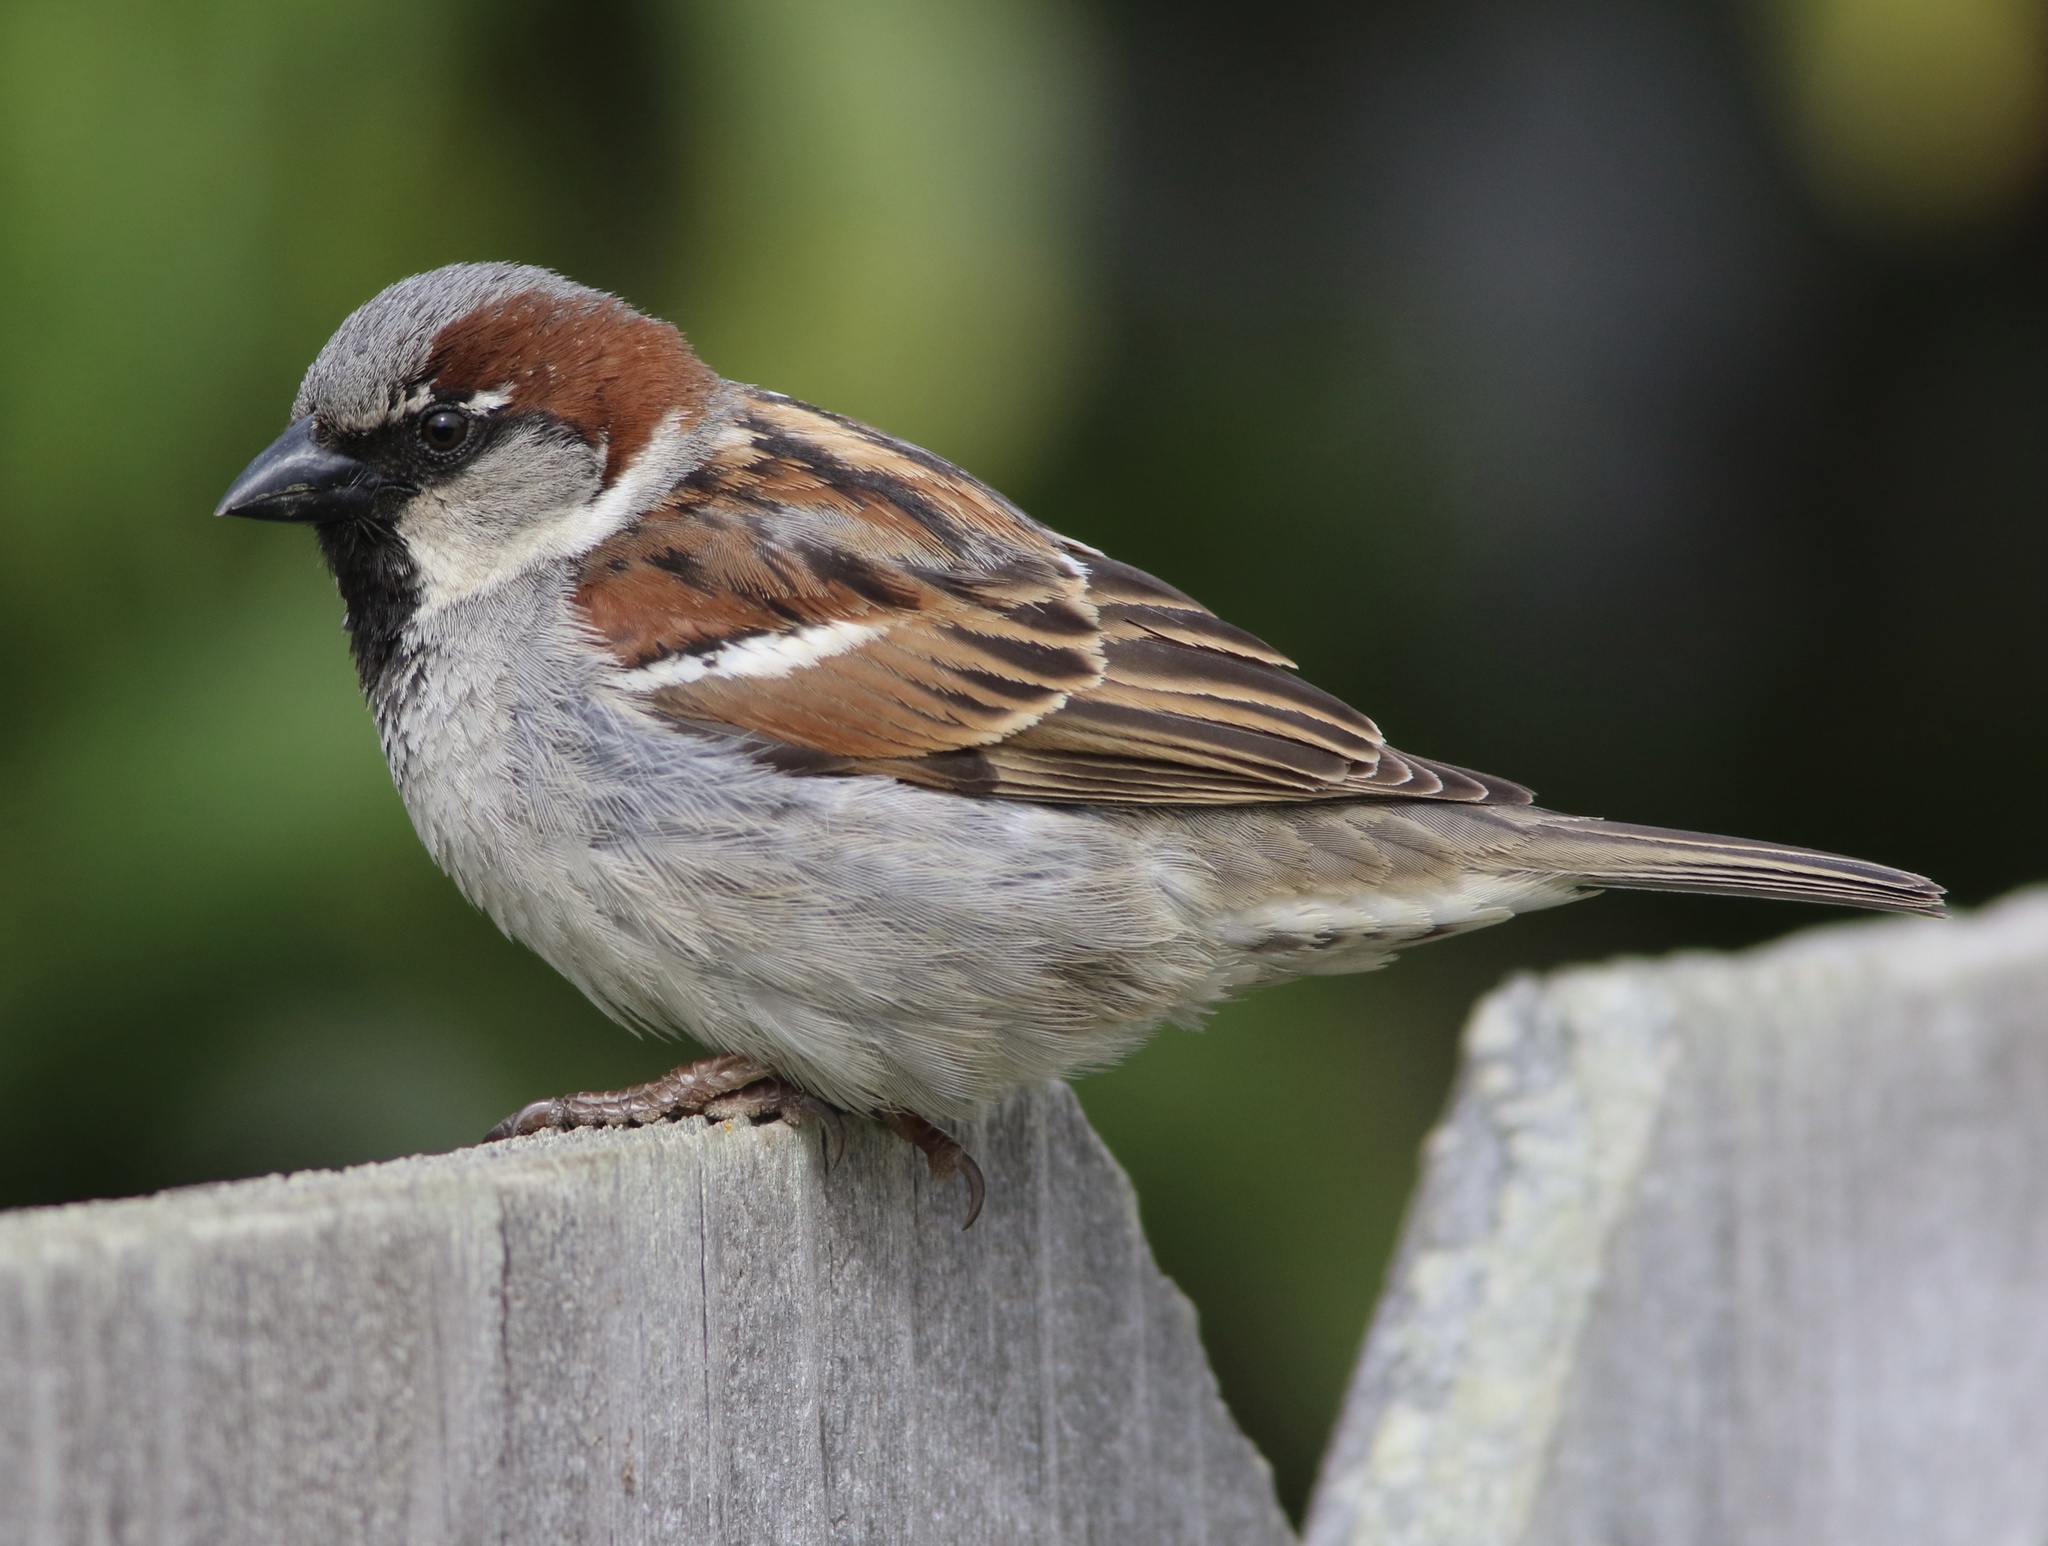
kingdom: Animalia
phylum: Chordata
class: Aves
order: Passeriformes
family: Passeridae
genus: Passer
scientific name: Passer domesticus
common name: House sparrow
